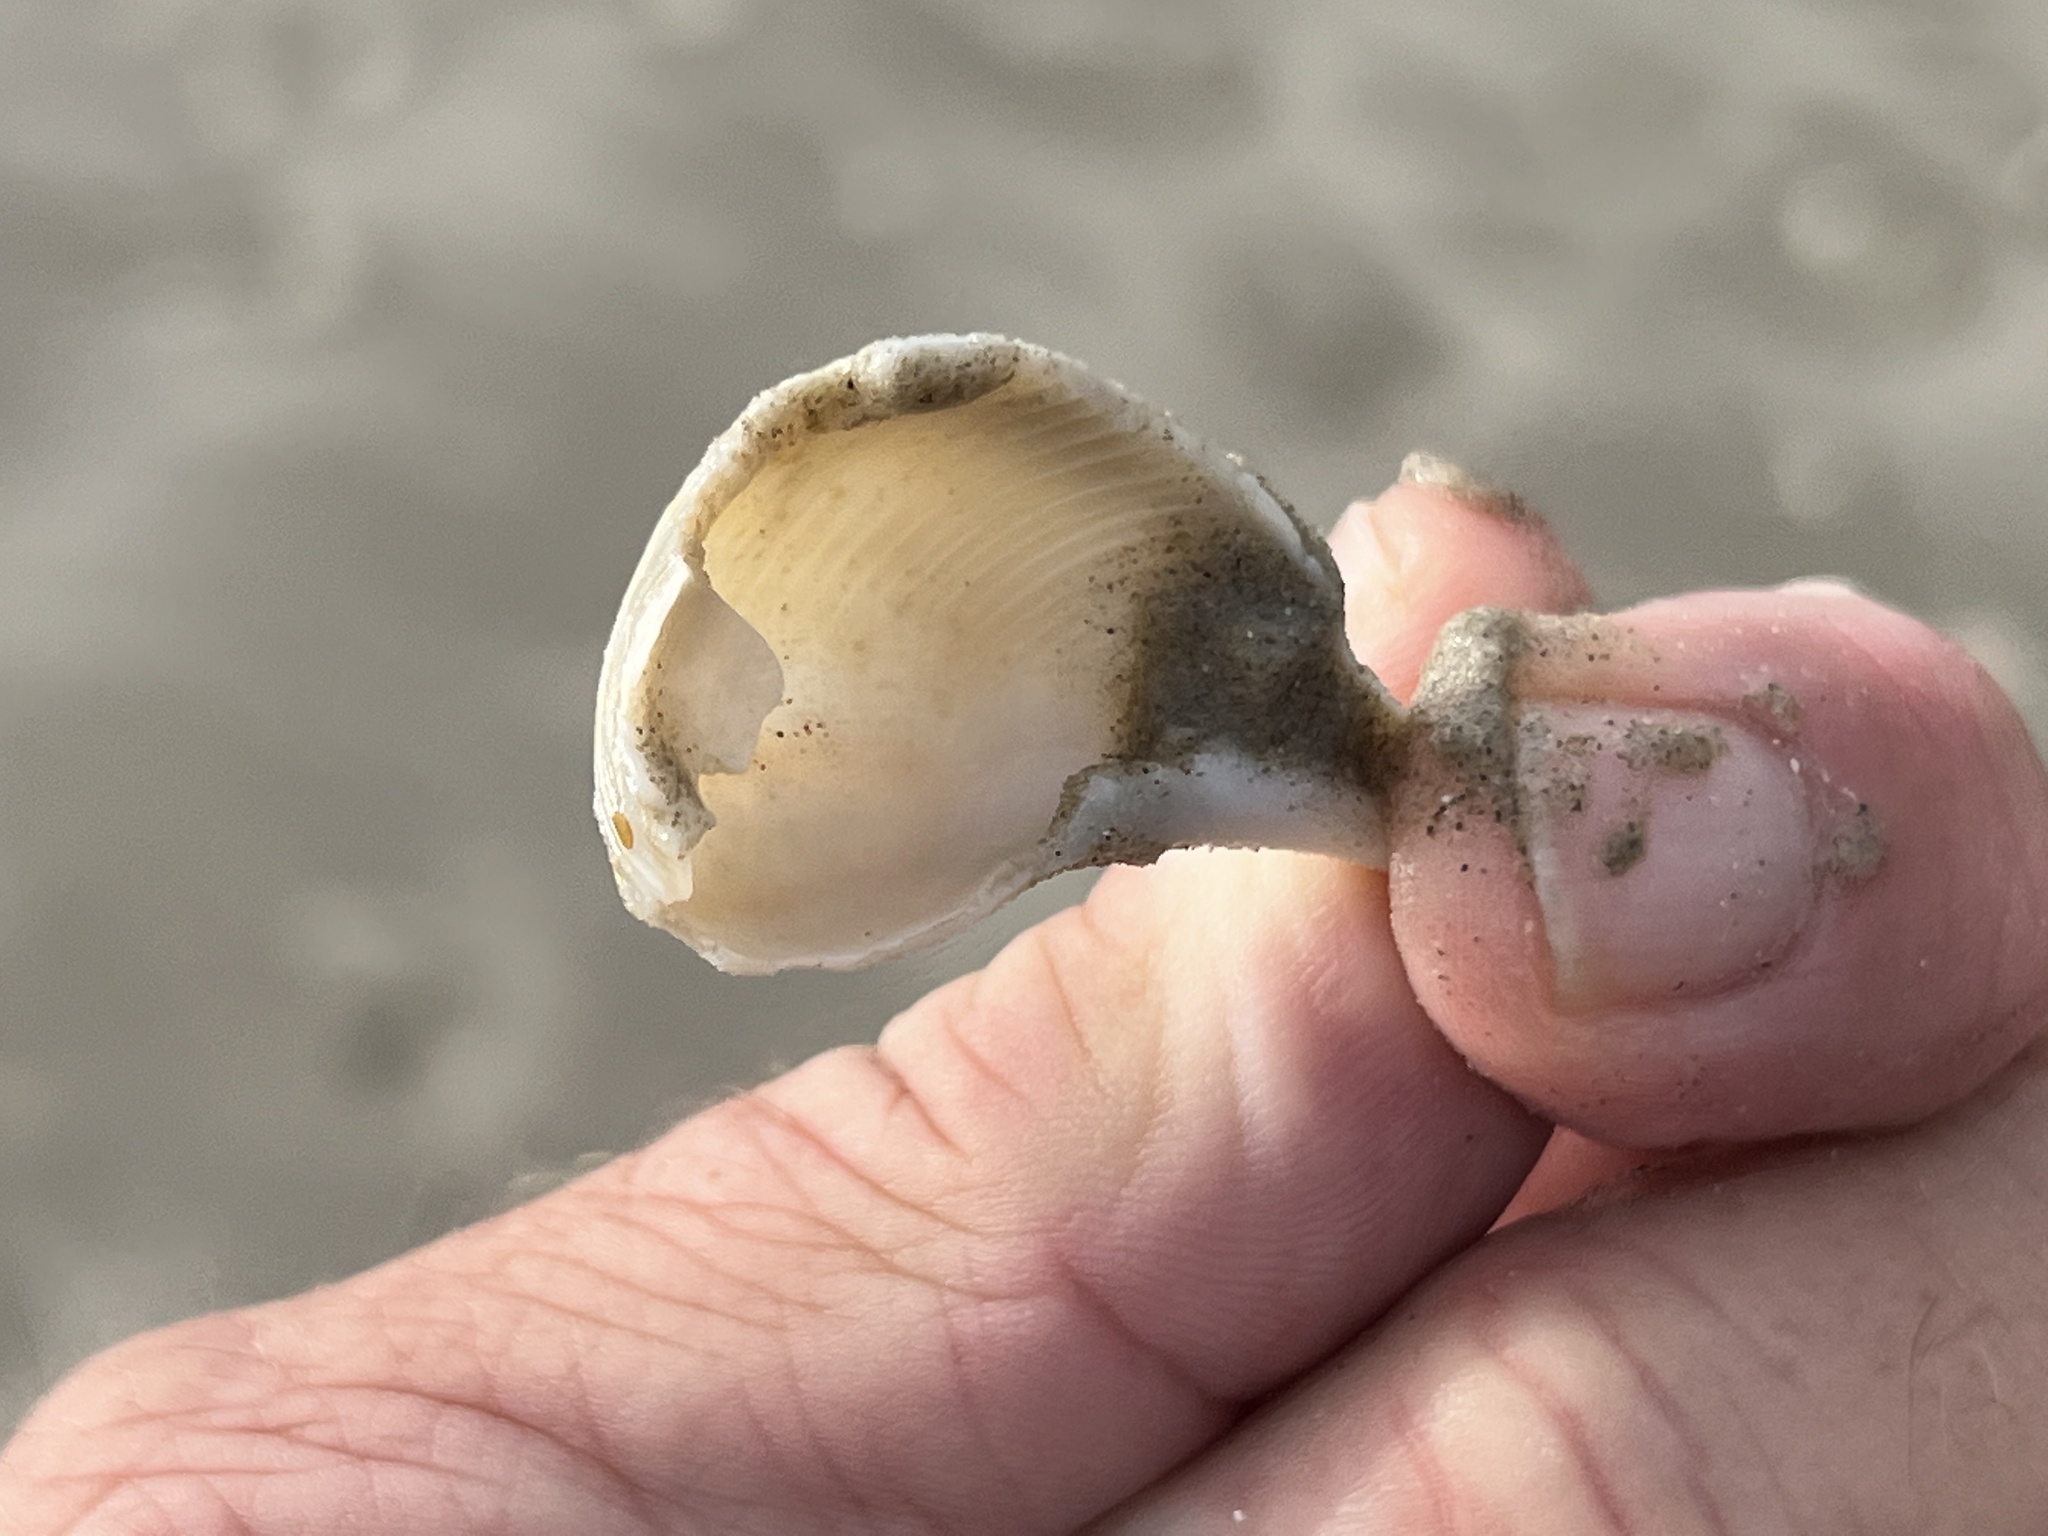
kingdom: Animalia
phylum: Mollusca
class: Gastropoda
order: Neogastropoda
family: Busyconidae
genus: Fulguropsis
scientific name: Fulguropsis spirata
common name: Pear whelk
